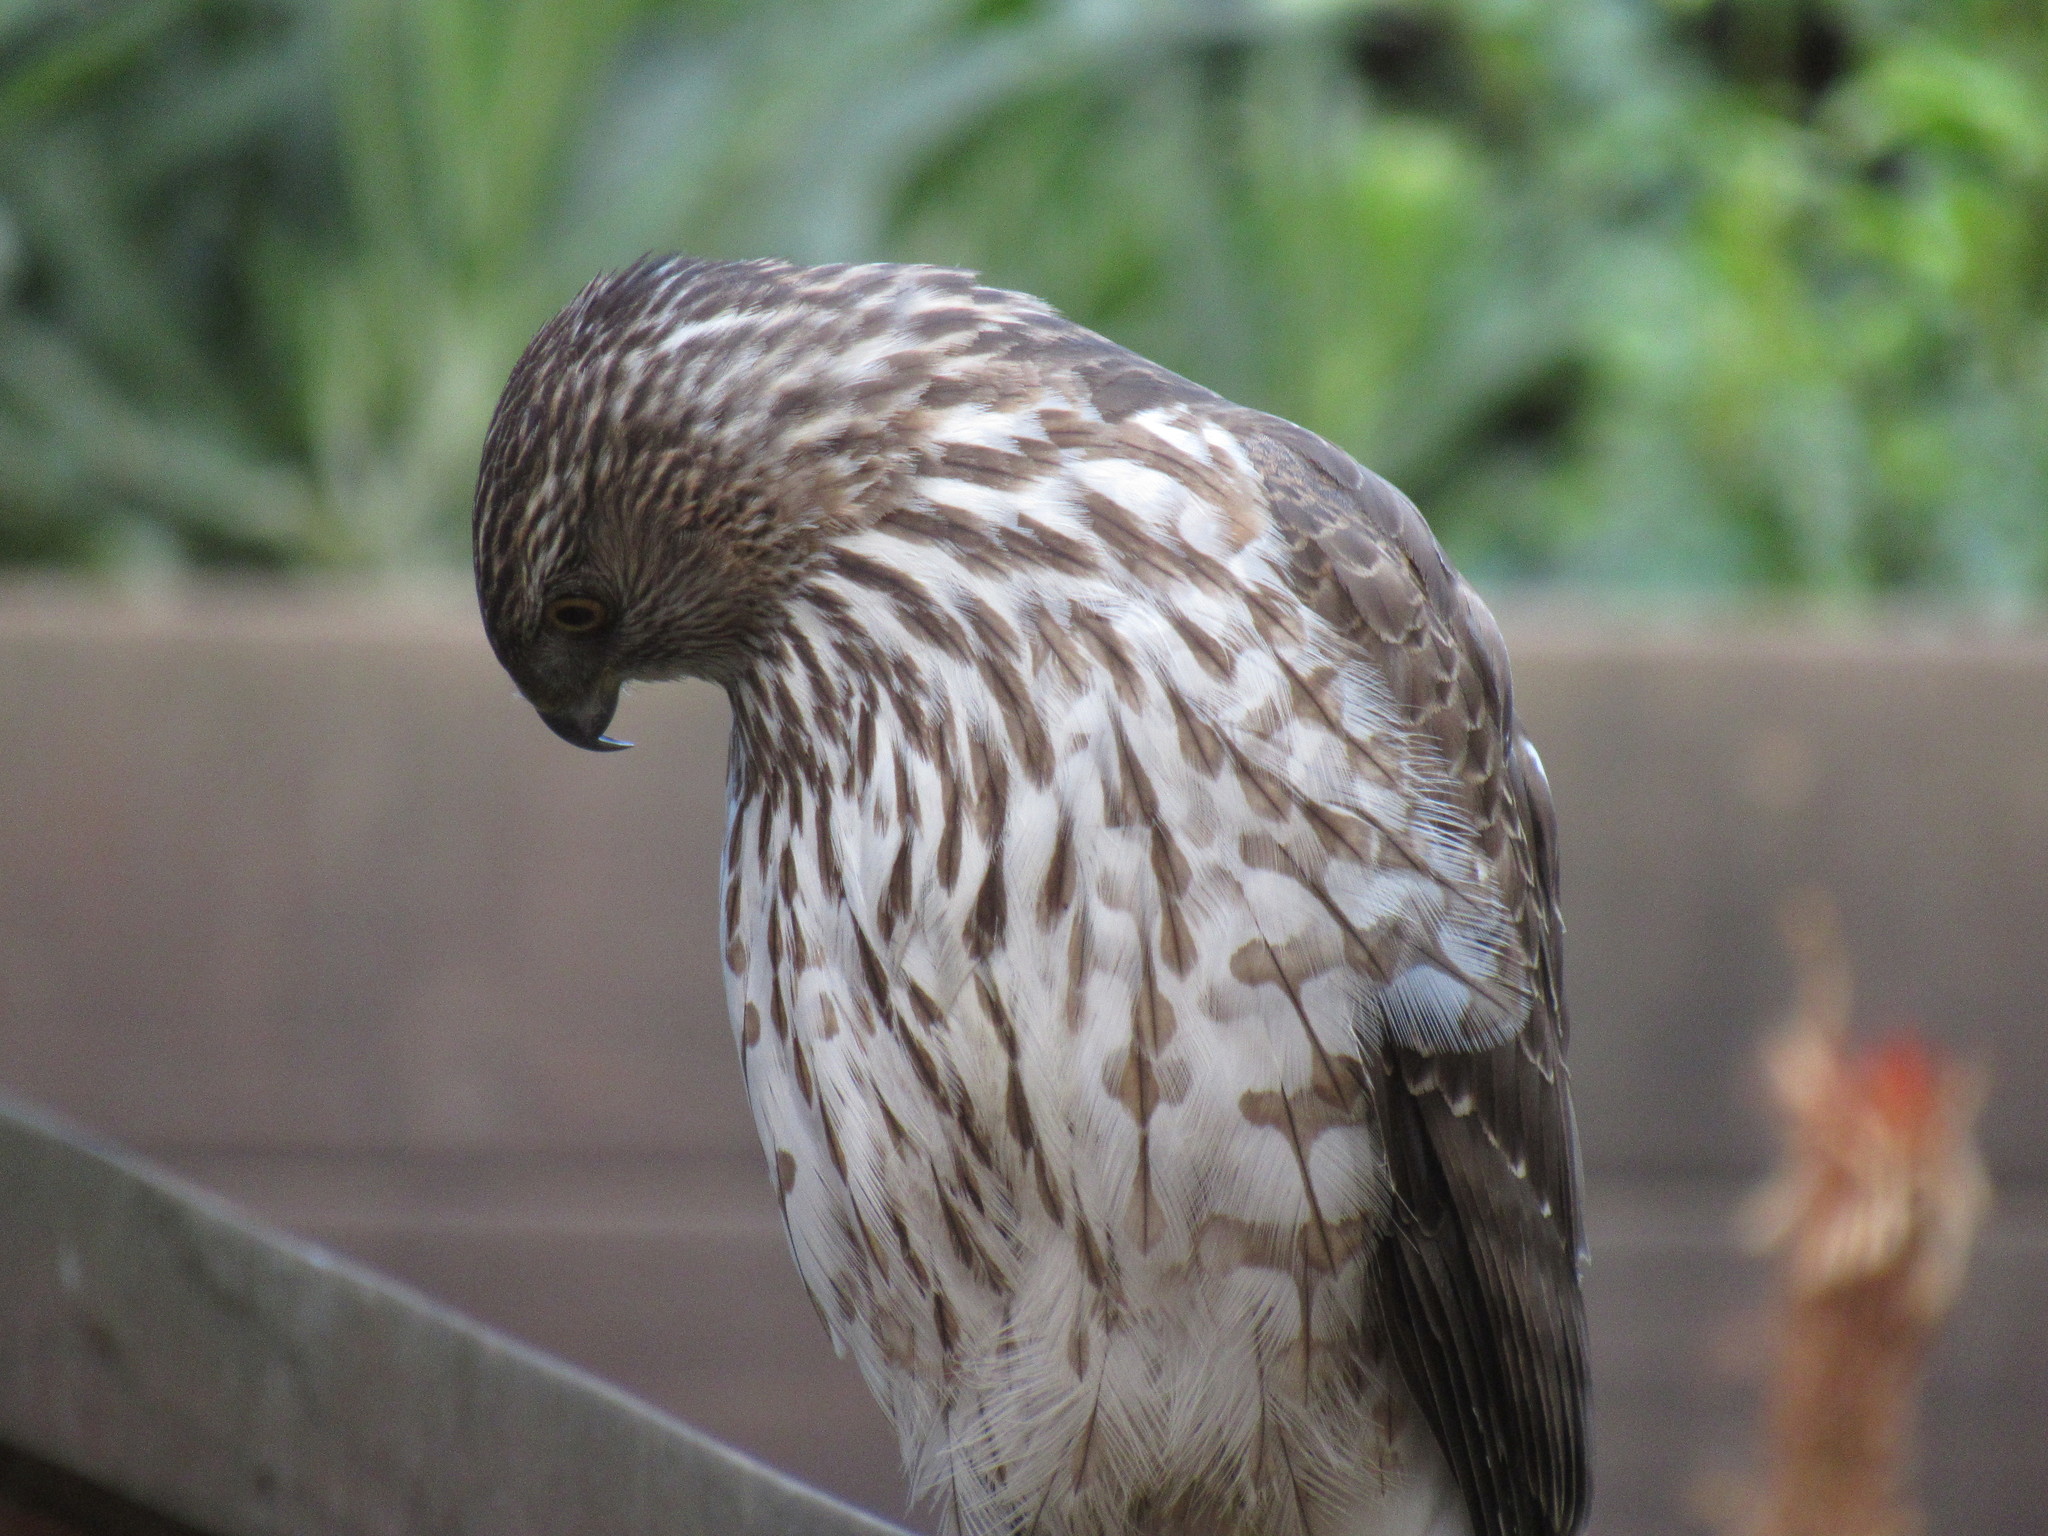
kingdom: Animalia
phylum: Chordata
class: Aves
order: Accipitriformes
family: Accipitridae
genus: Accipiter
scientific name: Accipiter cooperii
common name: Cooper's hawk
